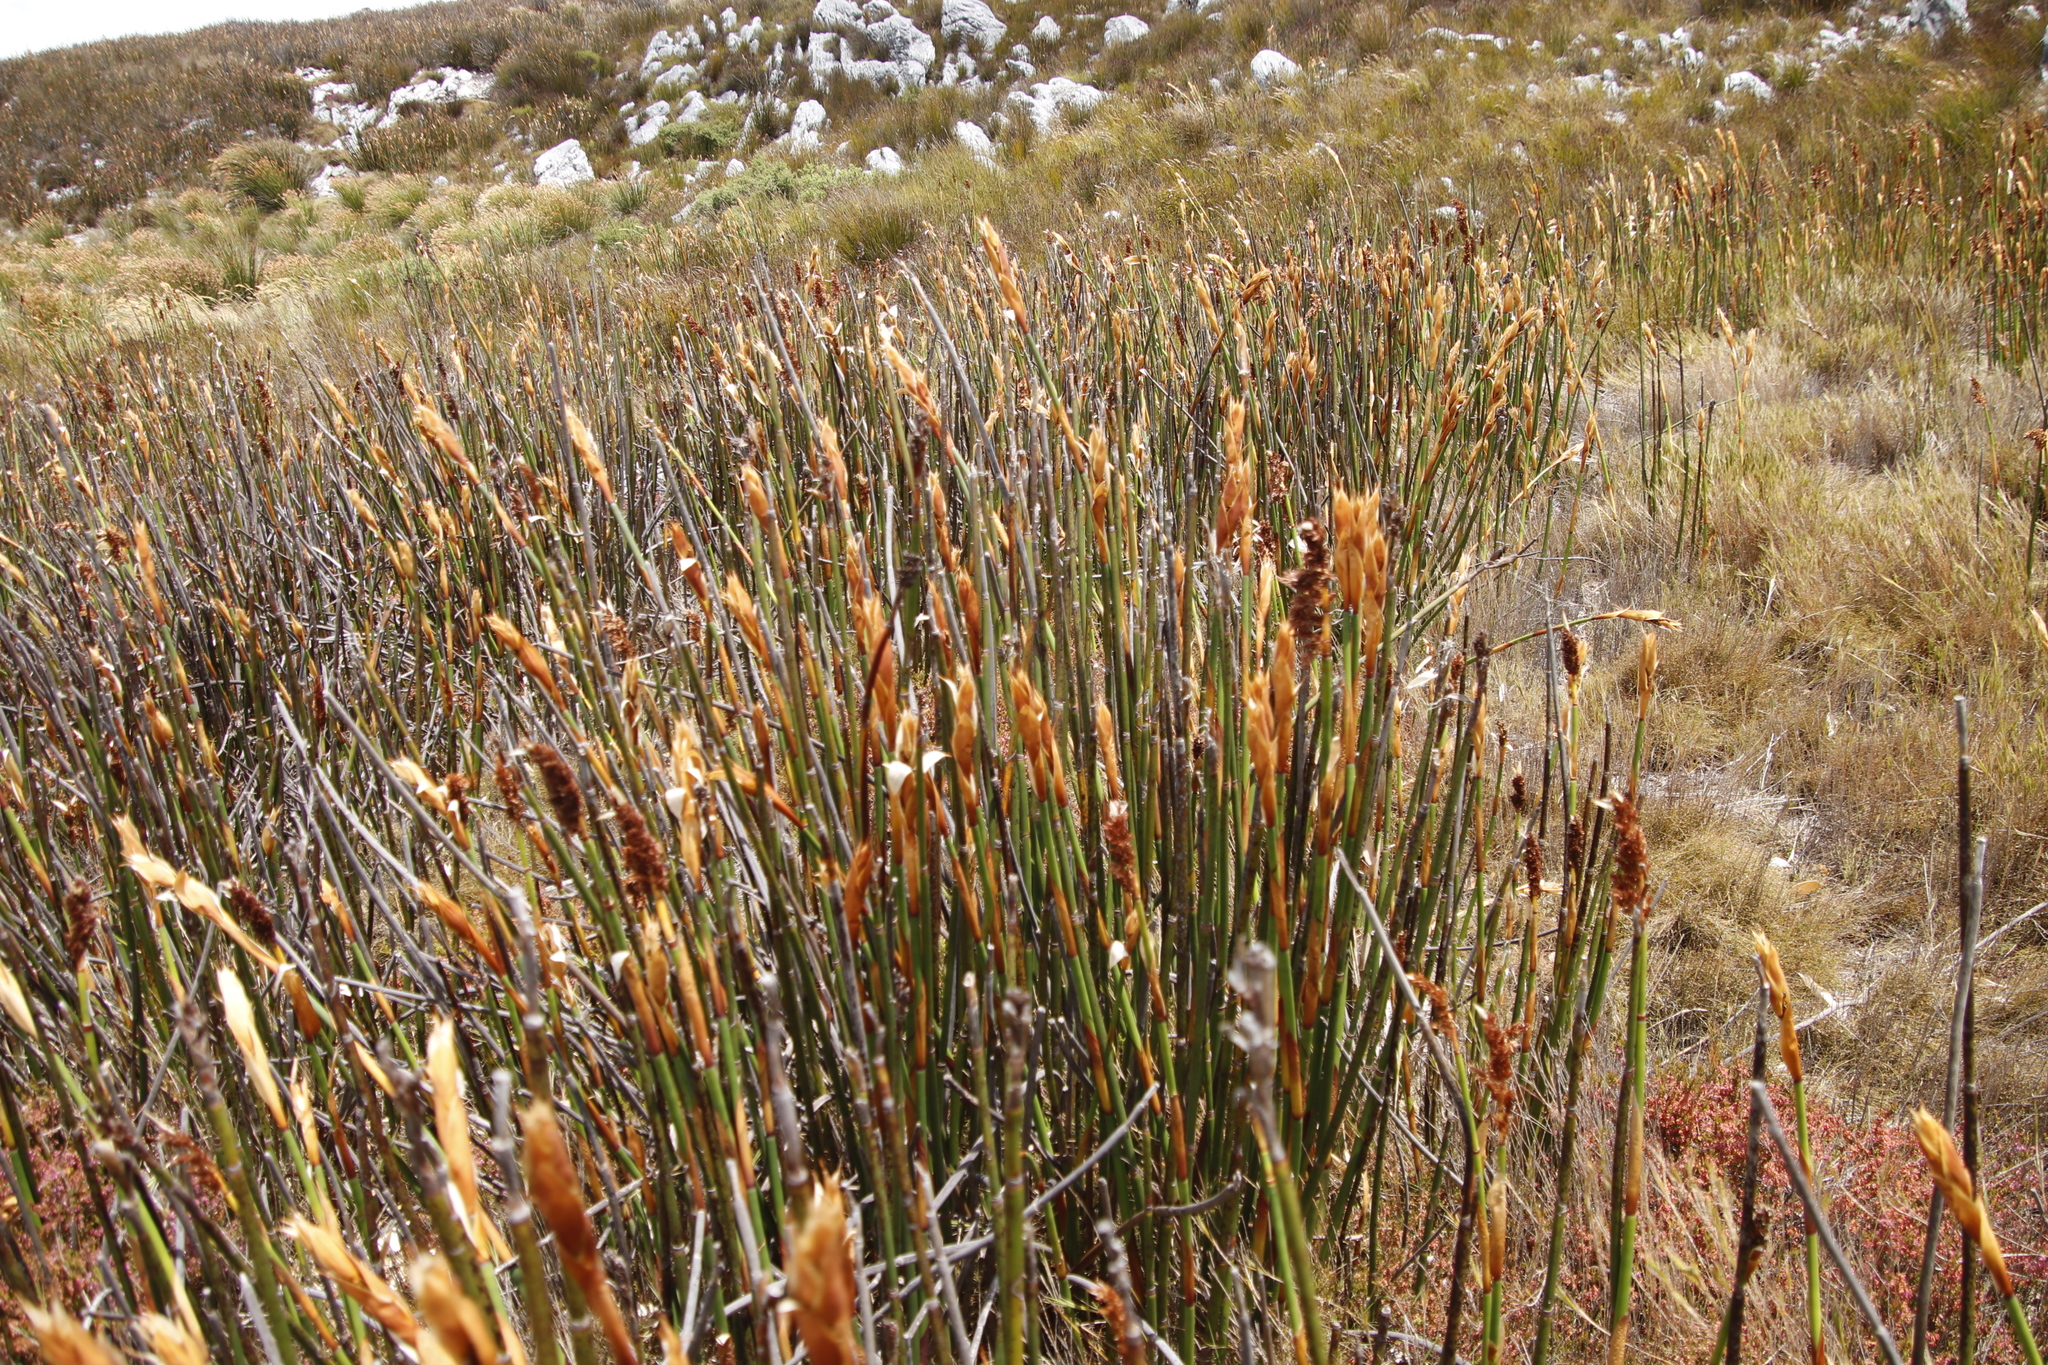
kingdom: Plantae
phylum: Tracheophyta
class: Liliopsida
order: Poales
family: Restionaceae
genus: Elegia
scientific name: Elegia mucronata
